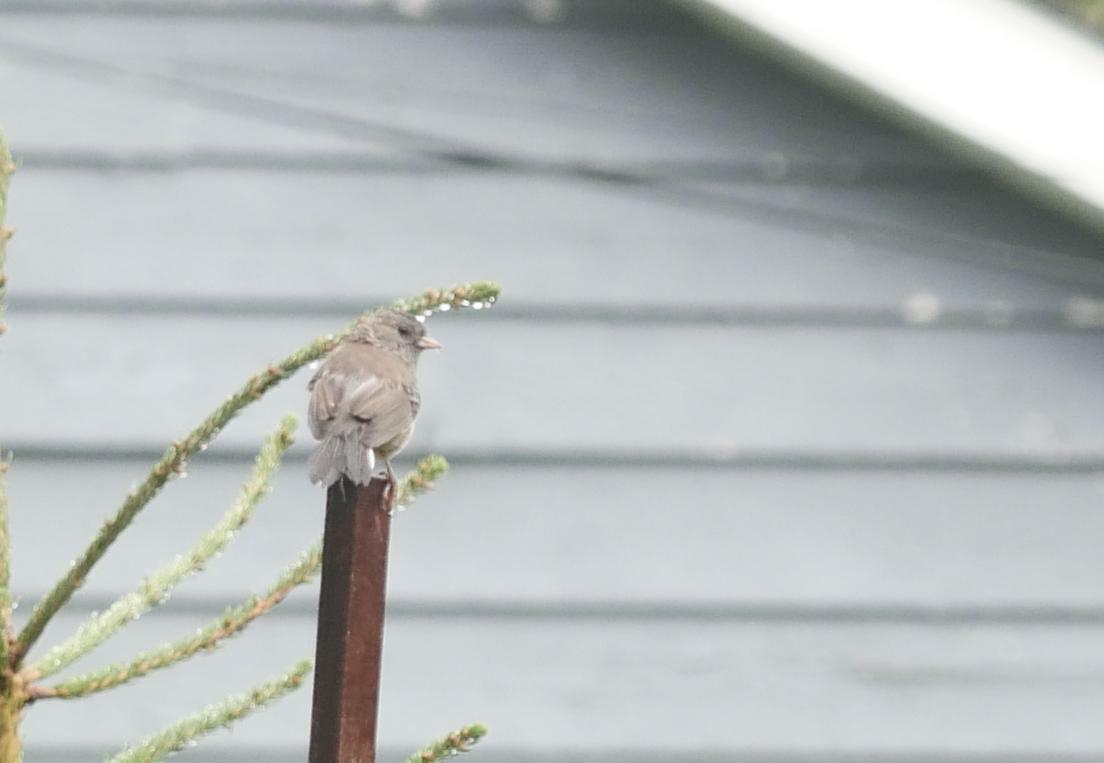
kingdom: Animalia
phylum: Chordata
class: Aves
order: Passeriformes
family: Passerellidae
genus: Junco
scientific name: Junco hyemalis
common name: Dark-eyed junco
